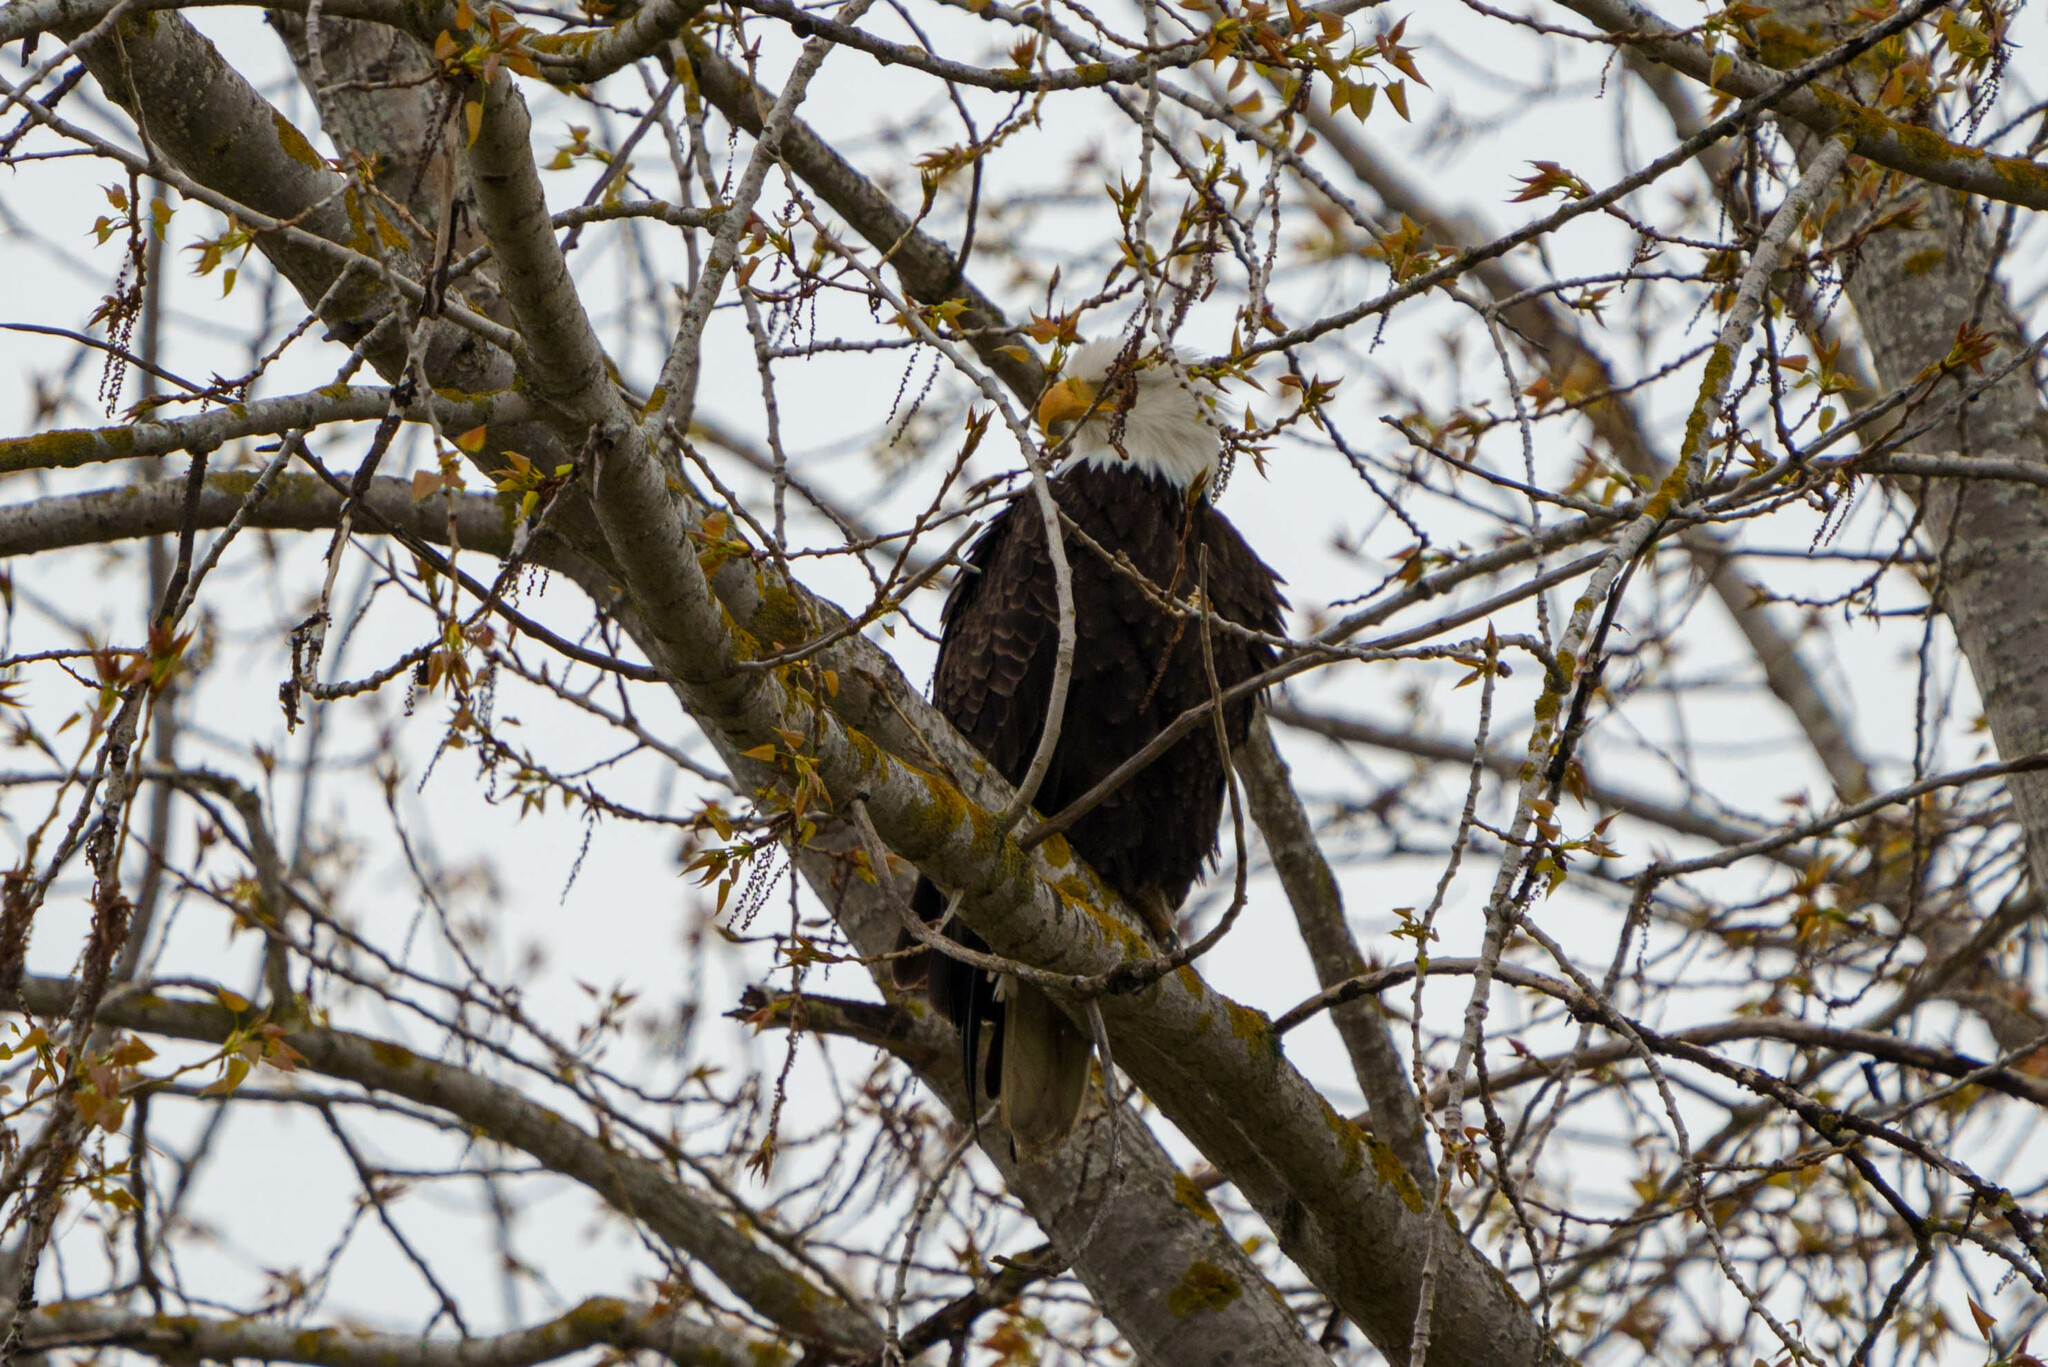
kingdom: Animalia
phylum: Chordata
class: Aves
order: Accipitriformes
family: Accipitridae
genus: Haliaeetus
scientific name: Haliaeetus leucocephalus
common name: Bald eagle
